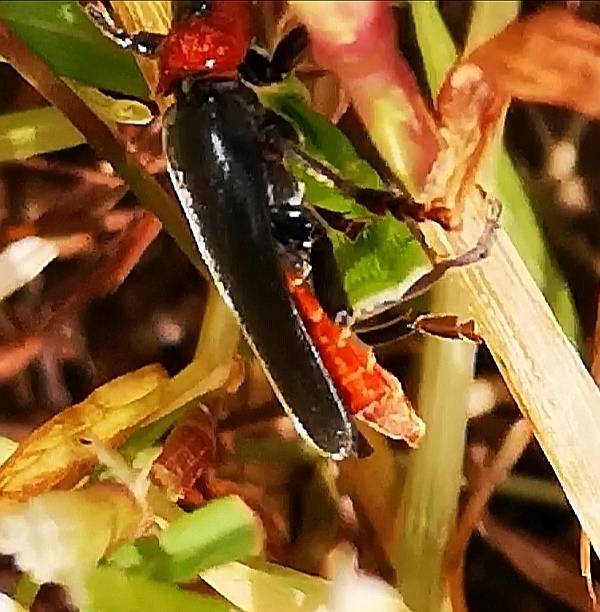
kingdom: Animalia
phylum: Arthropoda
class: Insecta
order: Coleoptera
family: Cantharidae
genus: Cantharis
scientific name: Cantharis fusca
